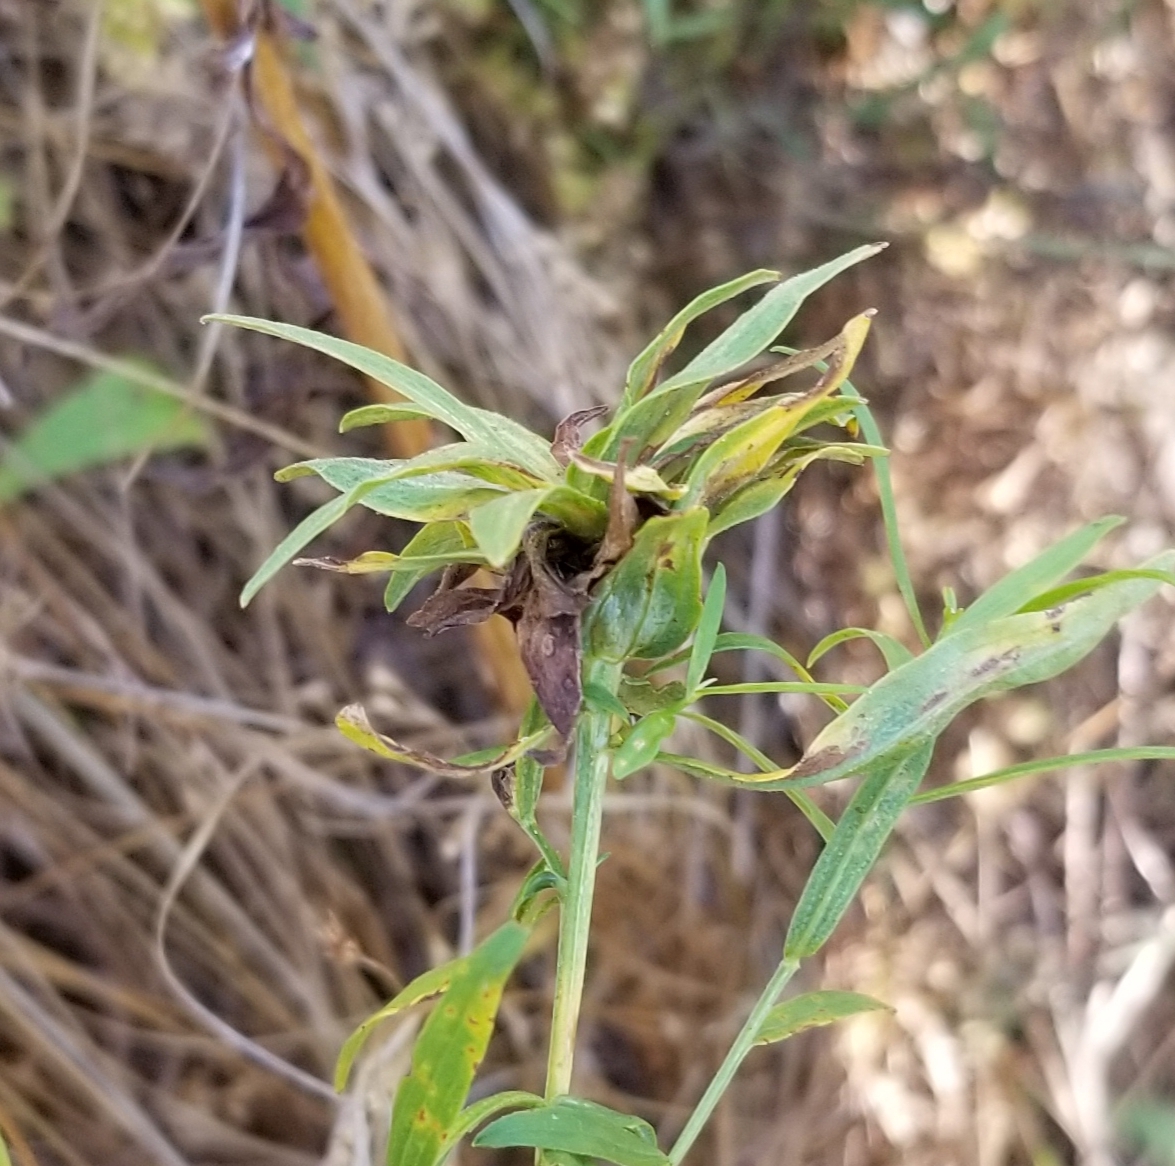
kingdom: Animalia
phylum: Arthropoda
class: Insecta
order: Diptera
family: Cecidomyiidae
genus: Asphondylia
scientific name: Asphondylia pseudorosa
